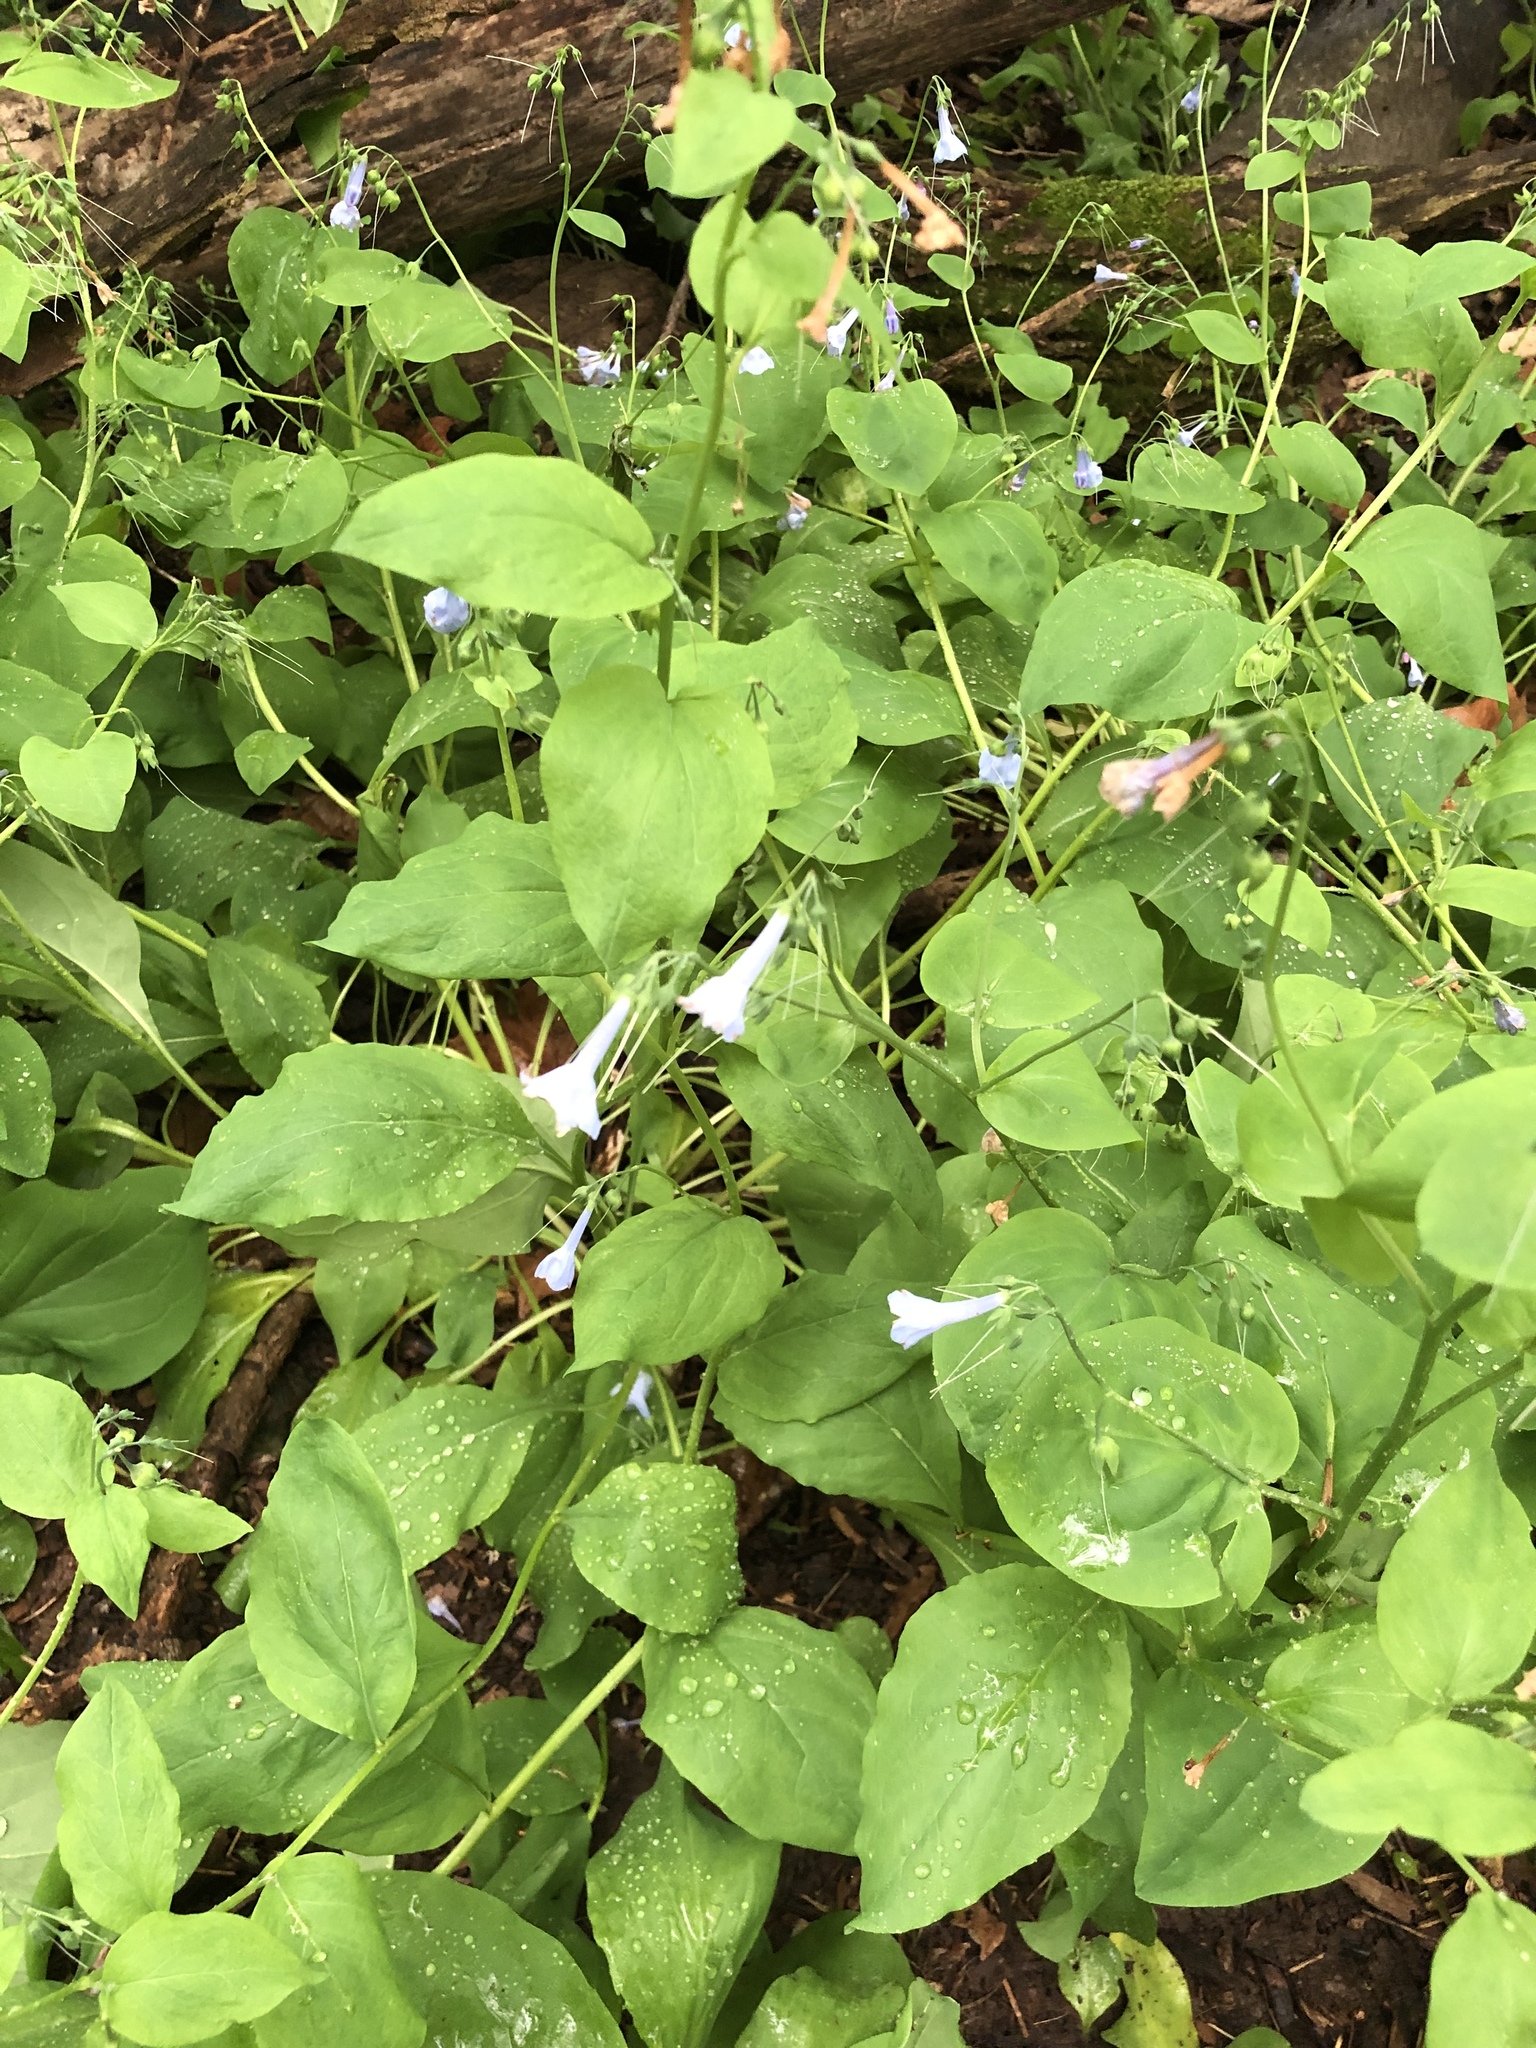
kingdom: Plantae
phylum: Tracheophyta
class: Magnoliopsida
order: Boraginales
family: Boraginaceae
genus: Mertensia
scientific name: Mertensia virginica
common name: Virginia bluebells
